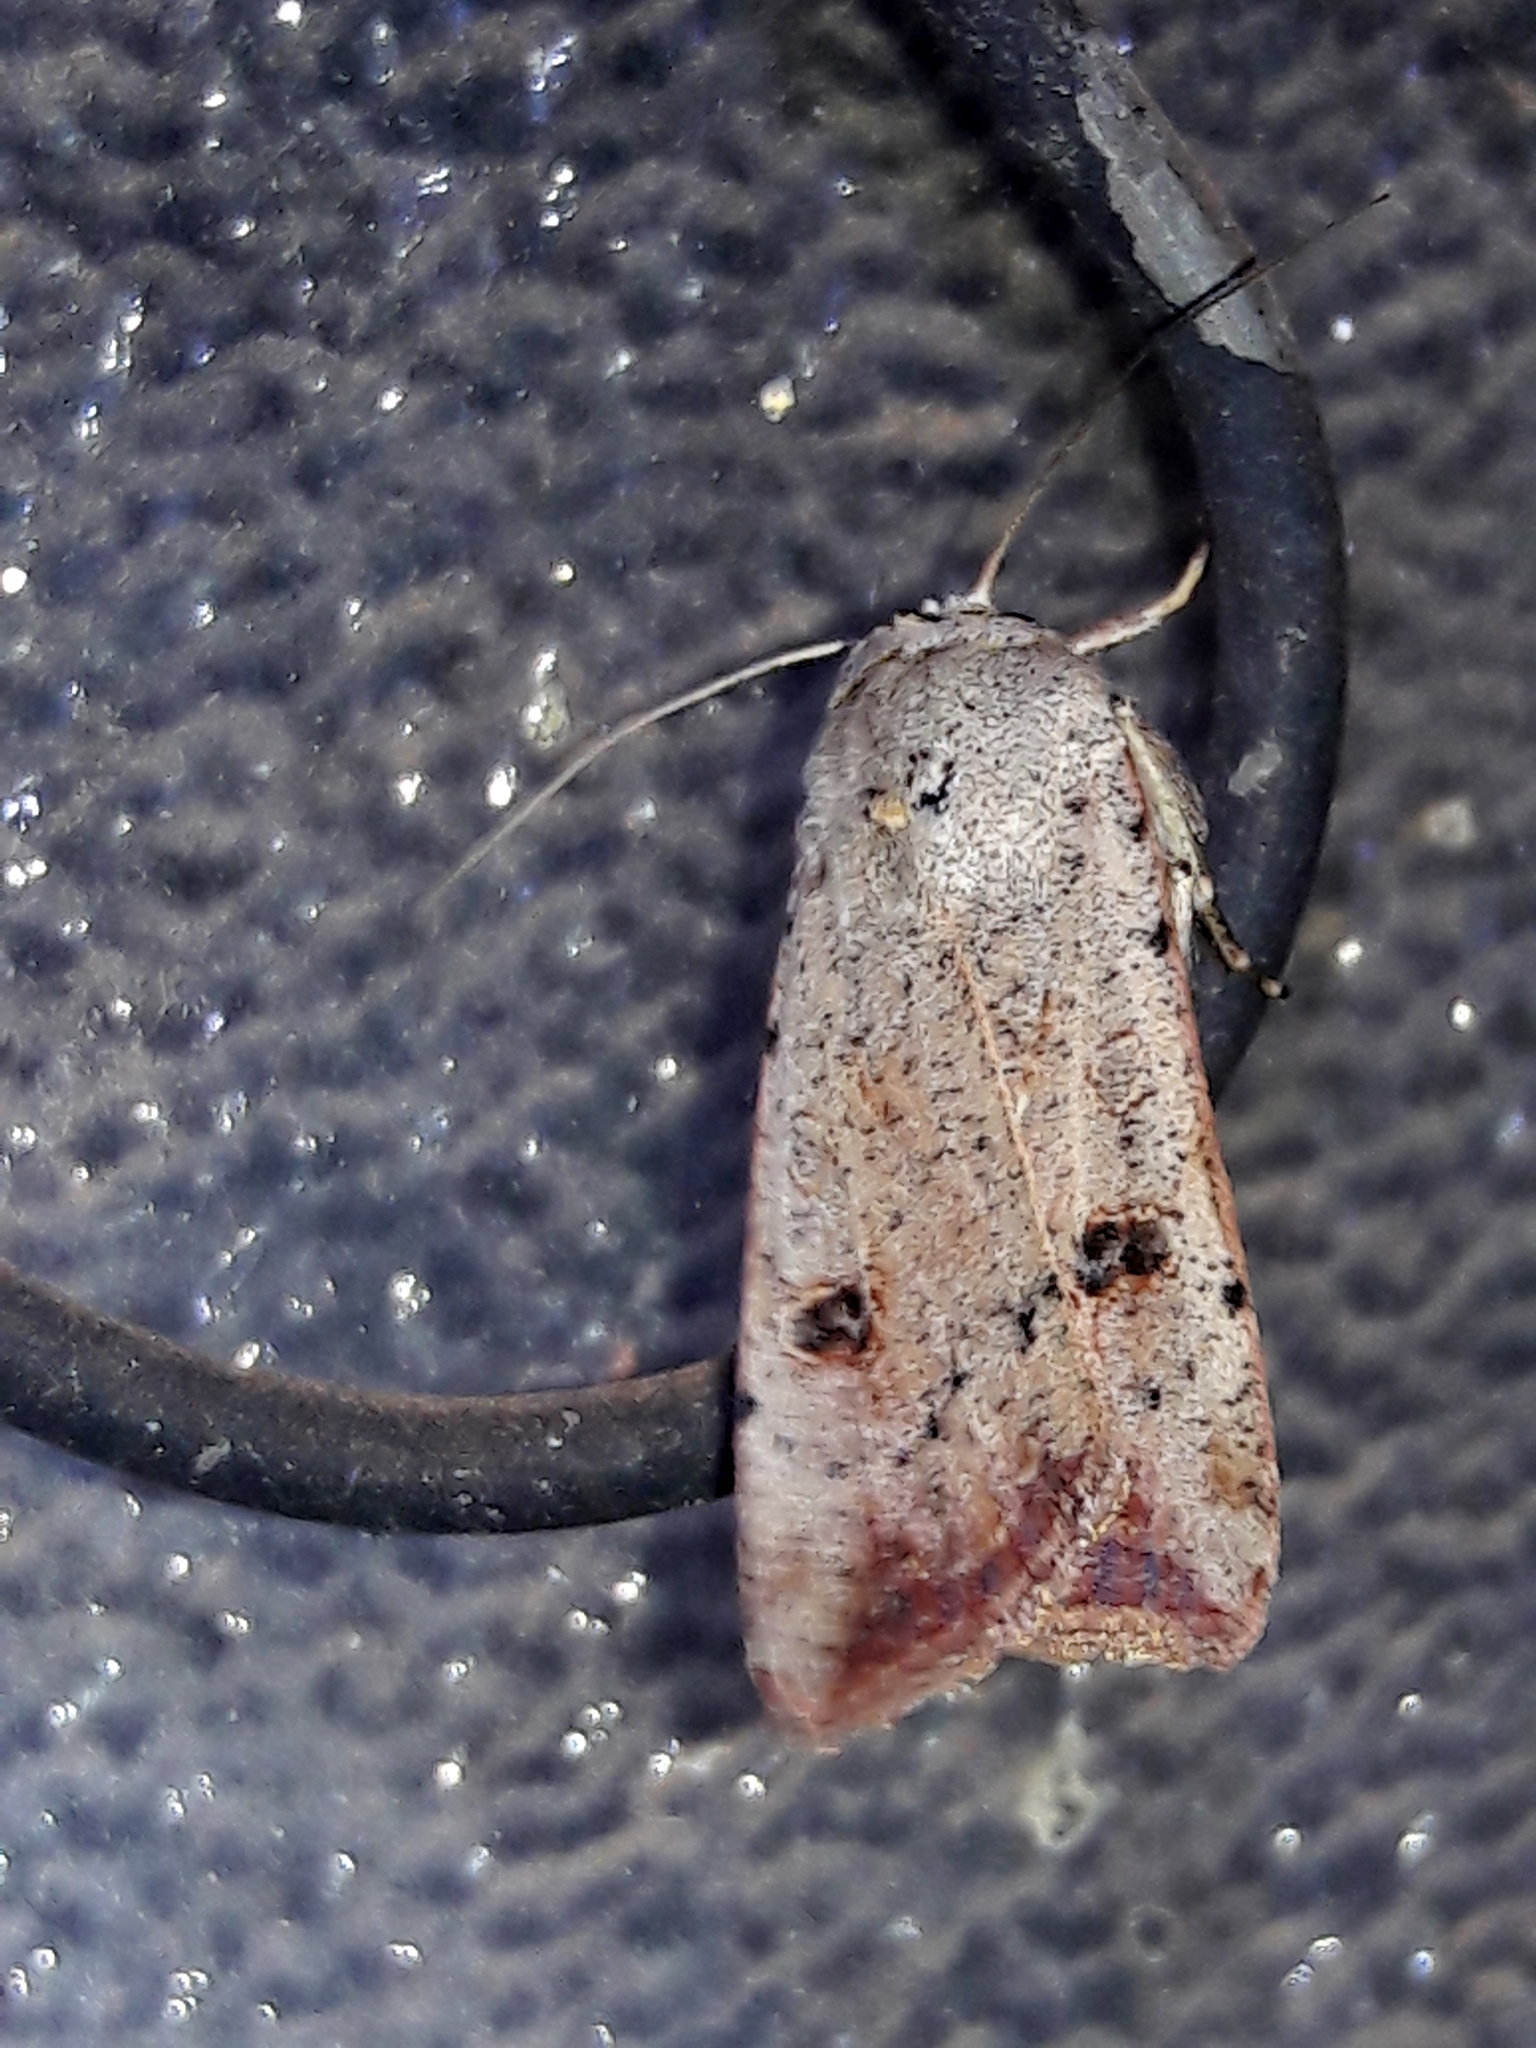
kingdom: Animalia
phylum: Arthropoda
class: Insecta
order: Lepidoptera
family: Noctuidae
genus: Anicla
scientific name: Anicla infecta
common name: Green cutworm
